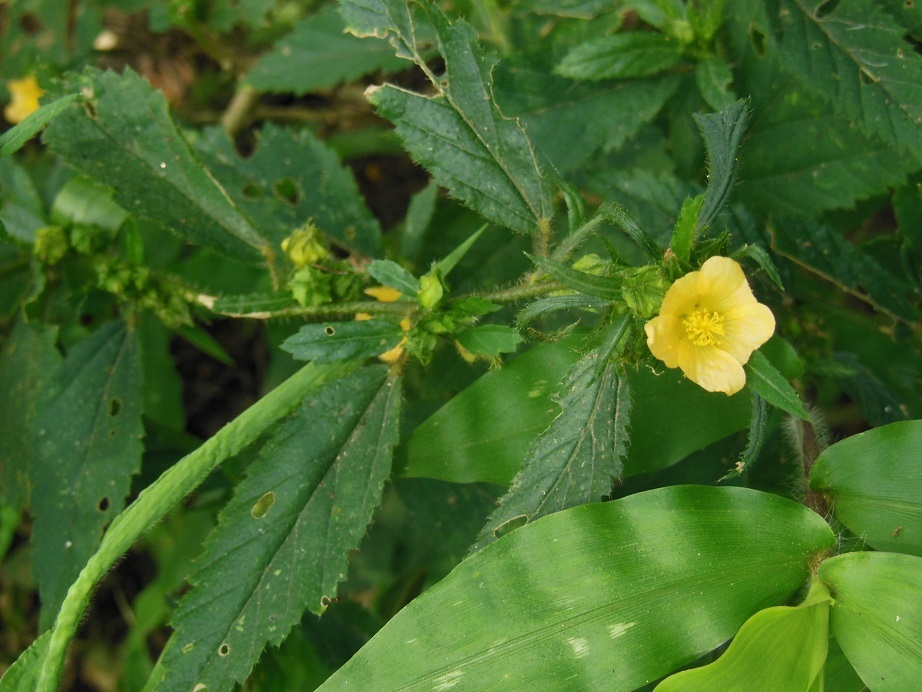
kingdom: Plantae
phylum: Tracheophyta
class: Magnoliopsida
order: Malvales
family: Malvaceae
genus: Sida
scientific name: Sida acuta
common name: Common wireweed
